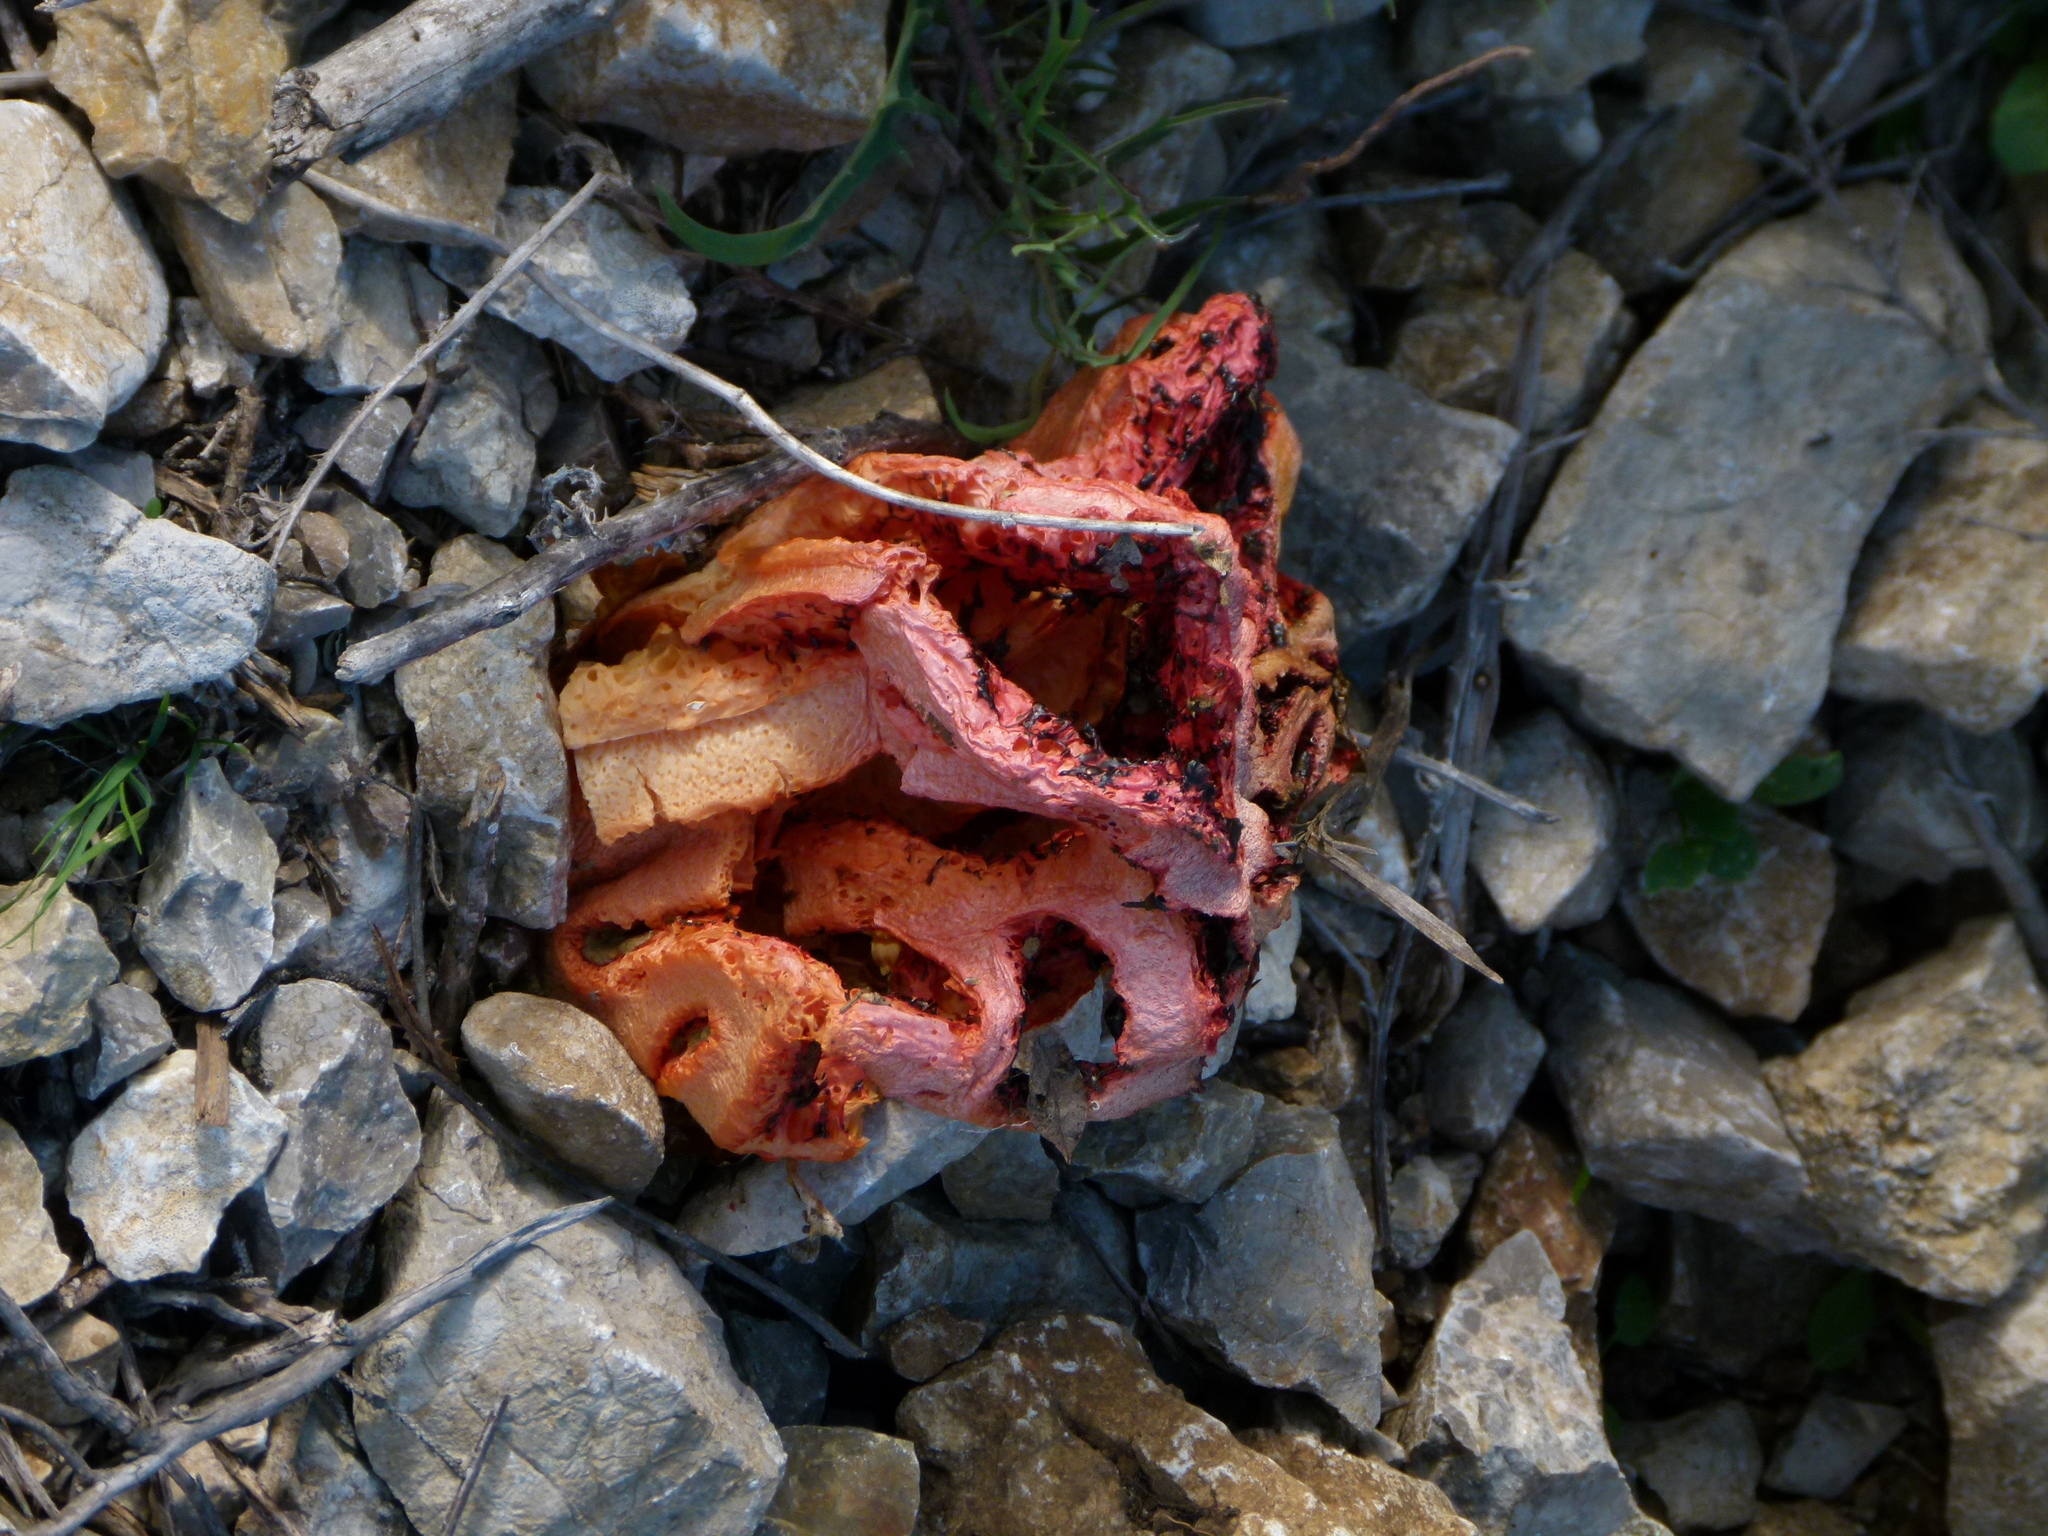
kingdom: Fungi
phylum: Basidiomycota
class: Agaricomycetes
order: Phallales
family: Phallaceae
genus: Clathrus
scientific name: Clathrus ruber
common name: Red cage
